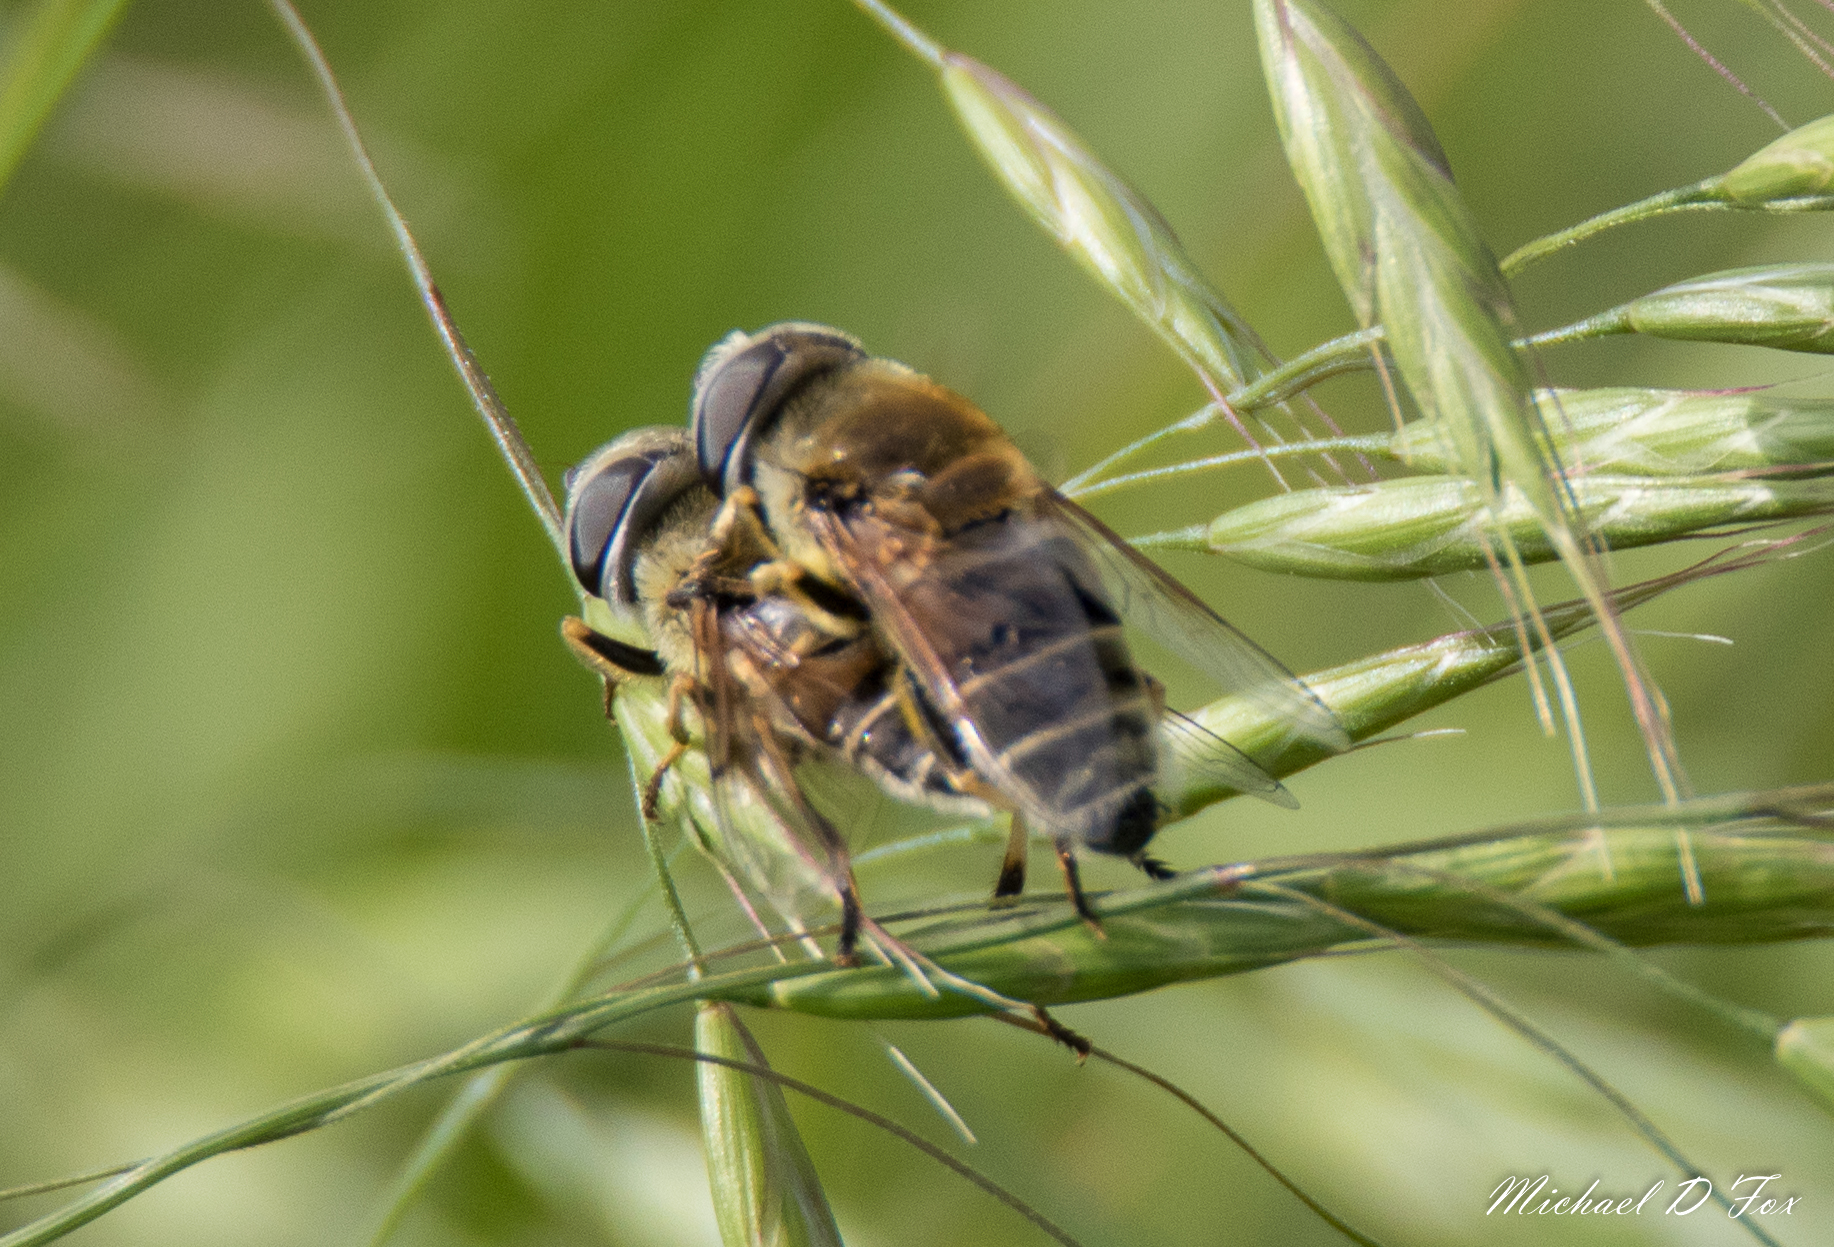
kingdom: Animalia
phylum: Arthropoda
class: Insecta
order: Diptera
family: Syrphidae
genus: Eristalis
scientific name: Eristalis stipator
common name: Yellow-shouldered drone fly
